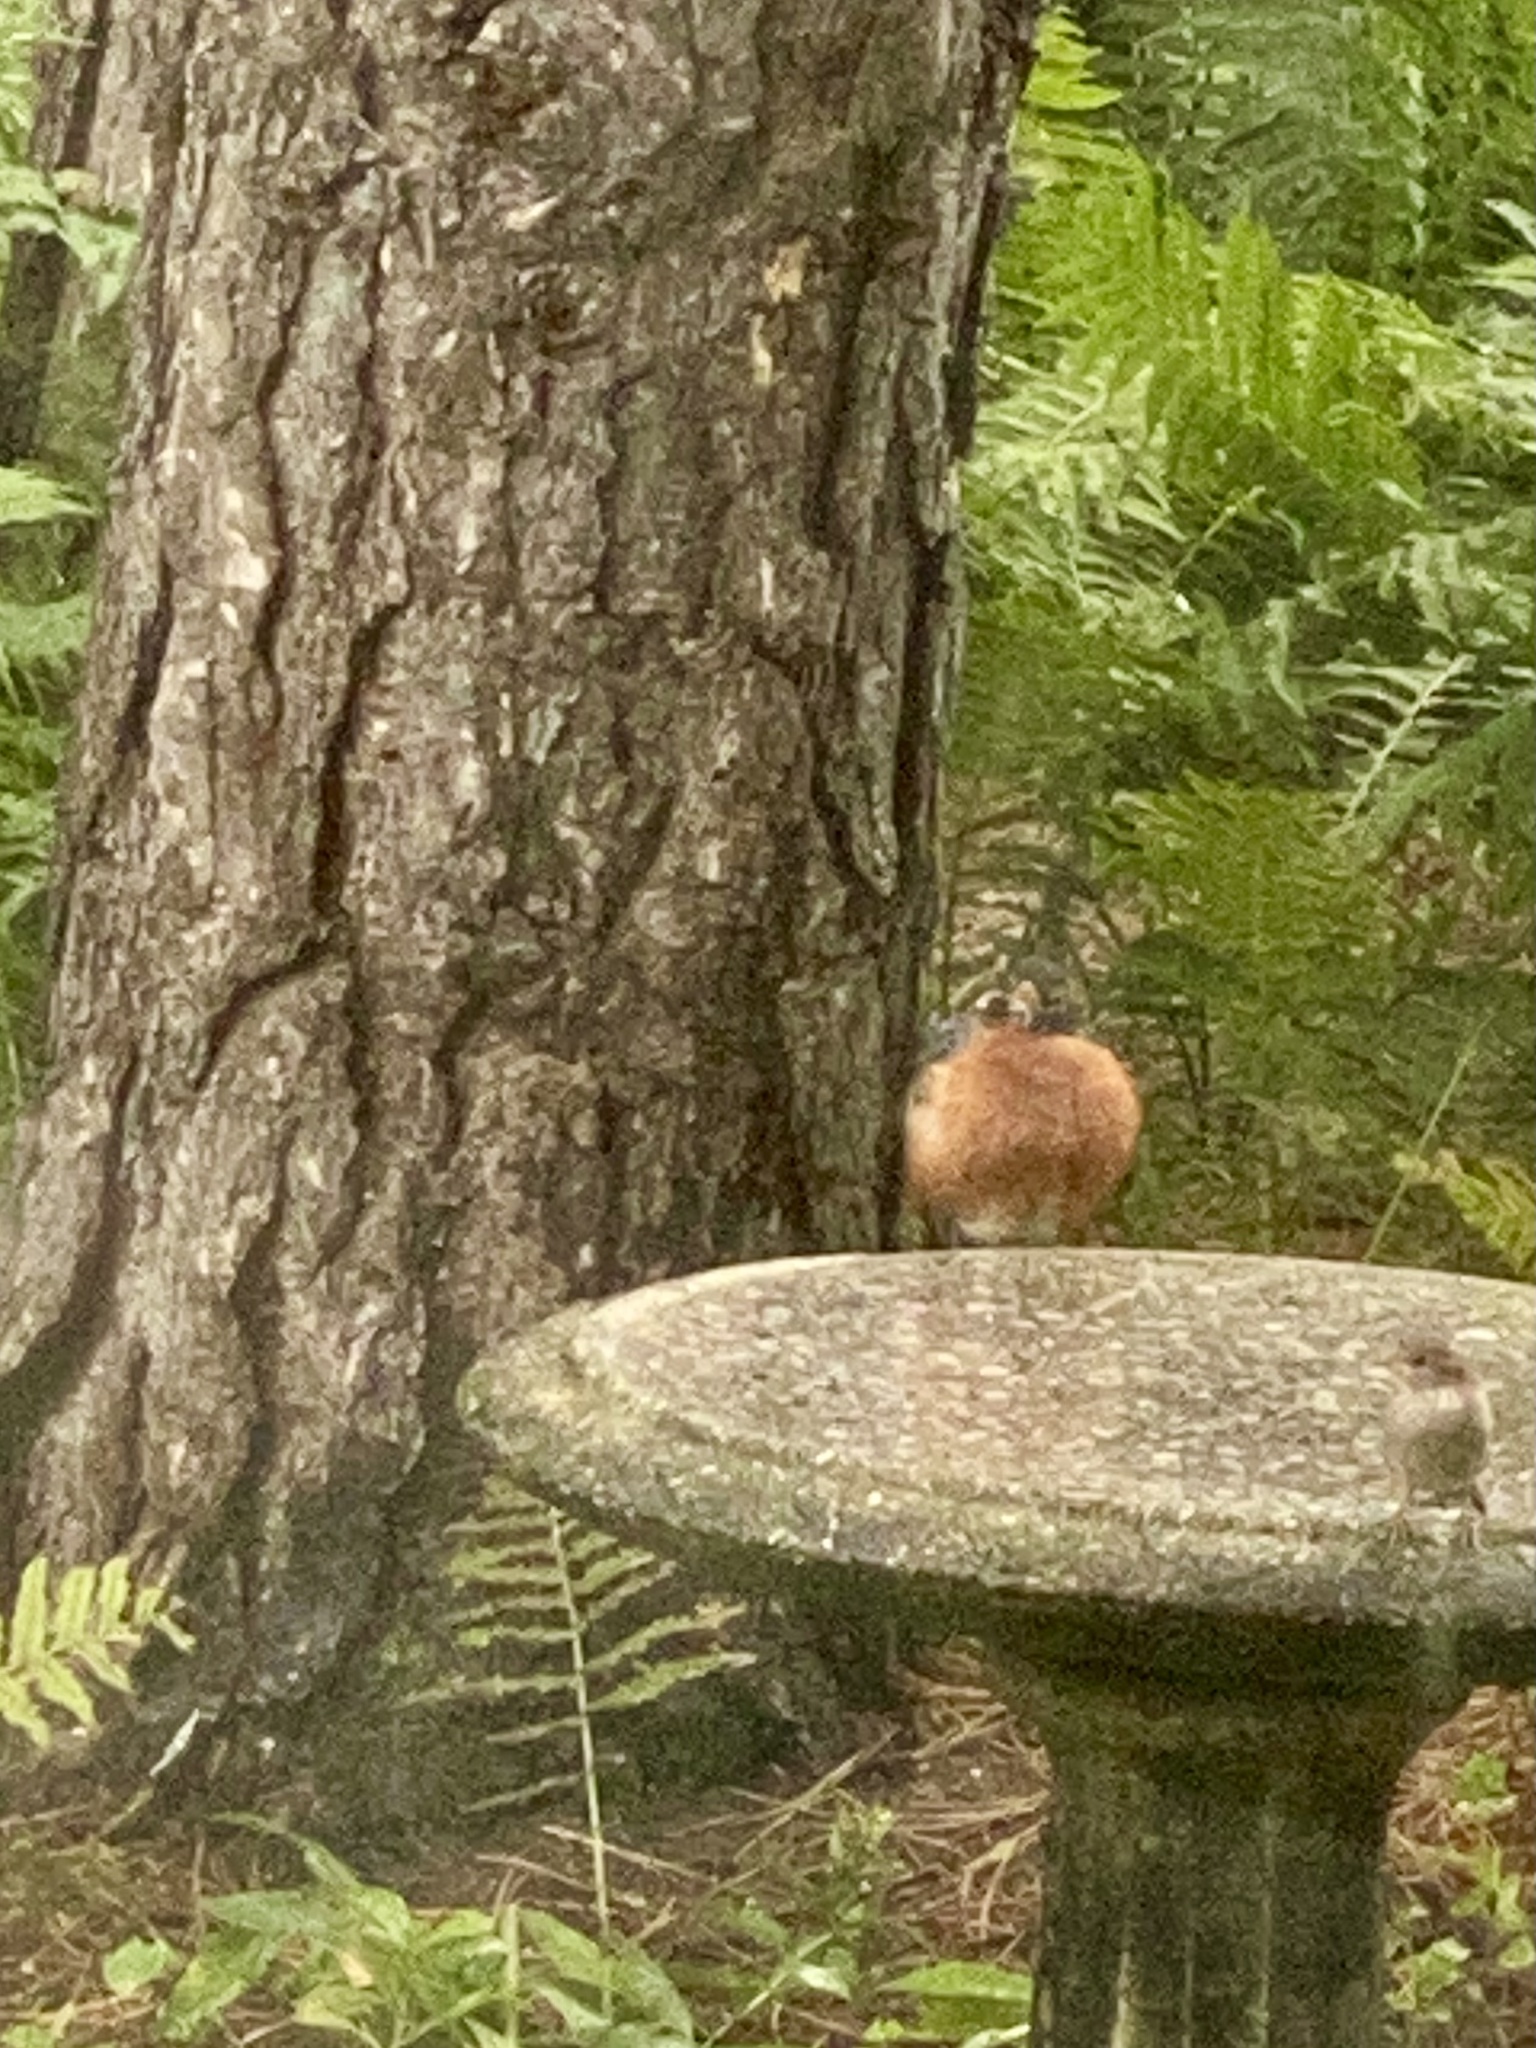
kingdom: Animalia
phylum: Chordata
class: Aves
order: Passeriformes
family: Turdidae
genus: Turdus
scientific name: Turdus migratorius
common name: American robin
